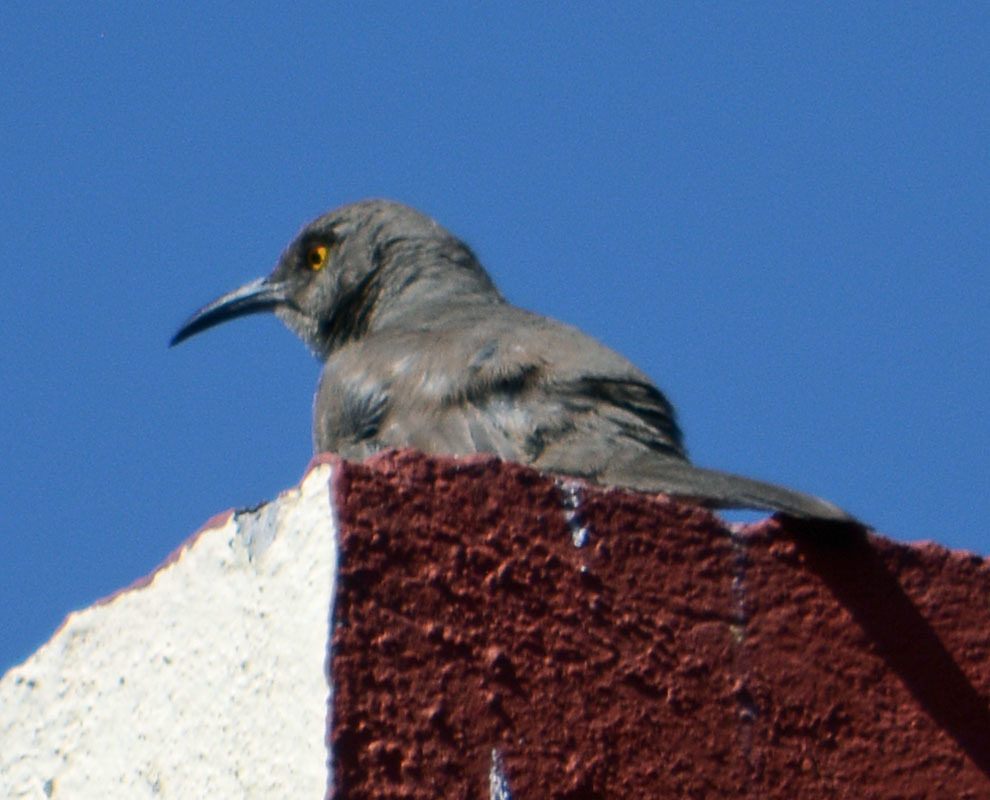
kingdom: Animalia
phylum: Chordata
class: Aves
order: Passeriformes
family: Mimidae
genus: Toxostoma
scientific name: Toxostoma curvirostre
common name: Curve-billed thrasher
